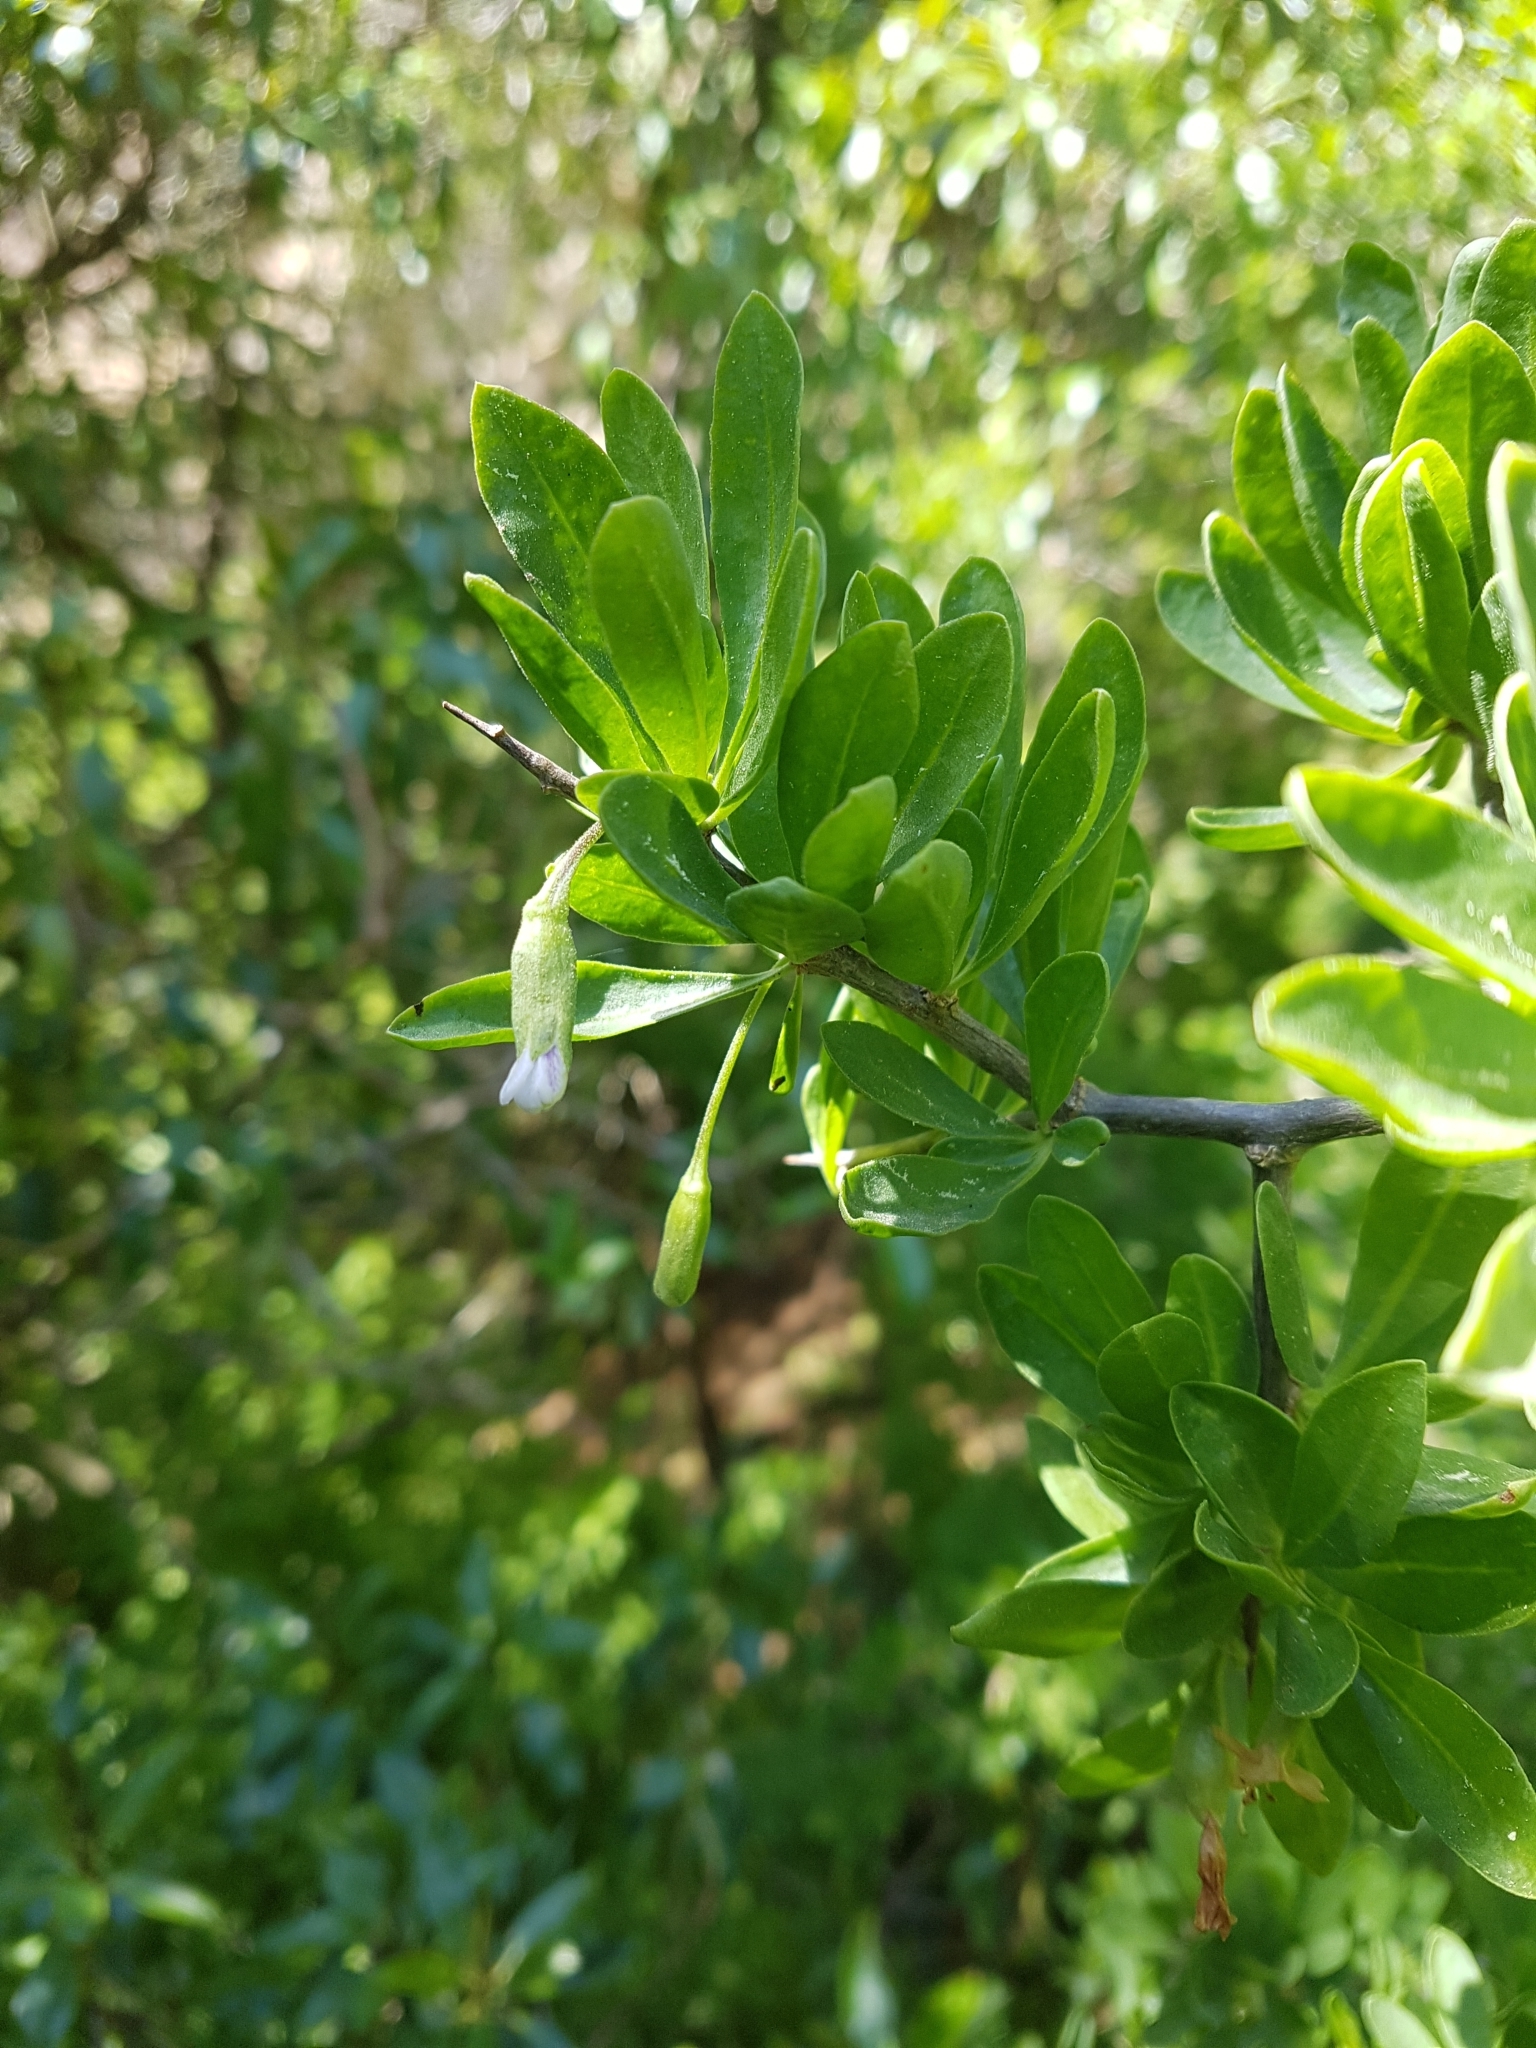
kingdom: Plantae
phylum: Tracheophyta
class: Magnoliopsida
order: Solanales
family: Solanaceae
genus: Lycium
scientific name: Lycium ferocissimum
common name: African boxthorn
